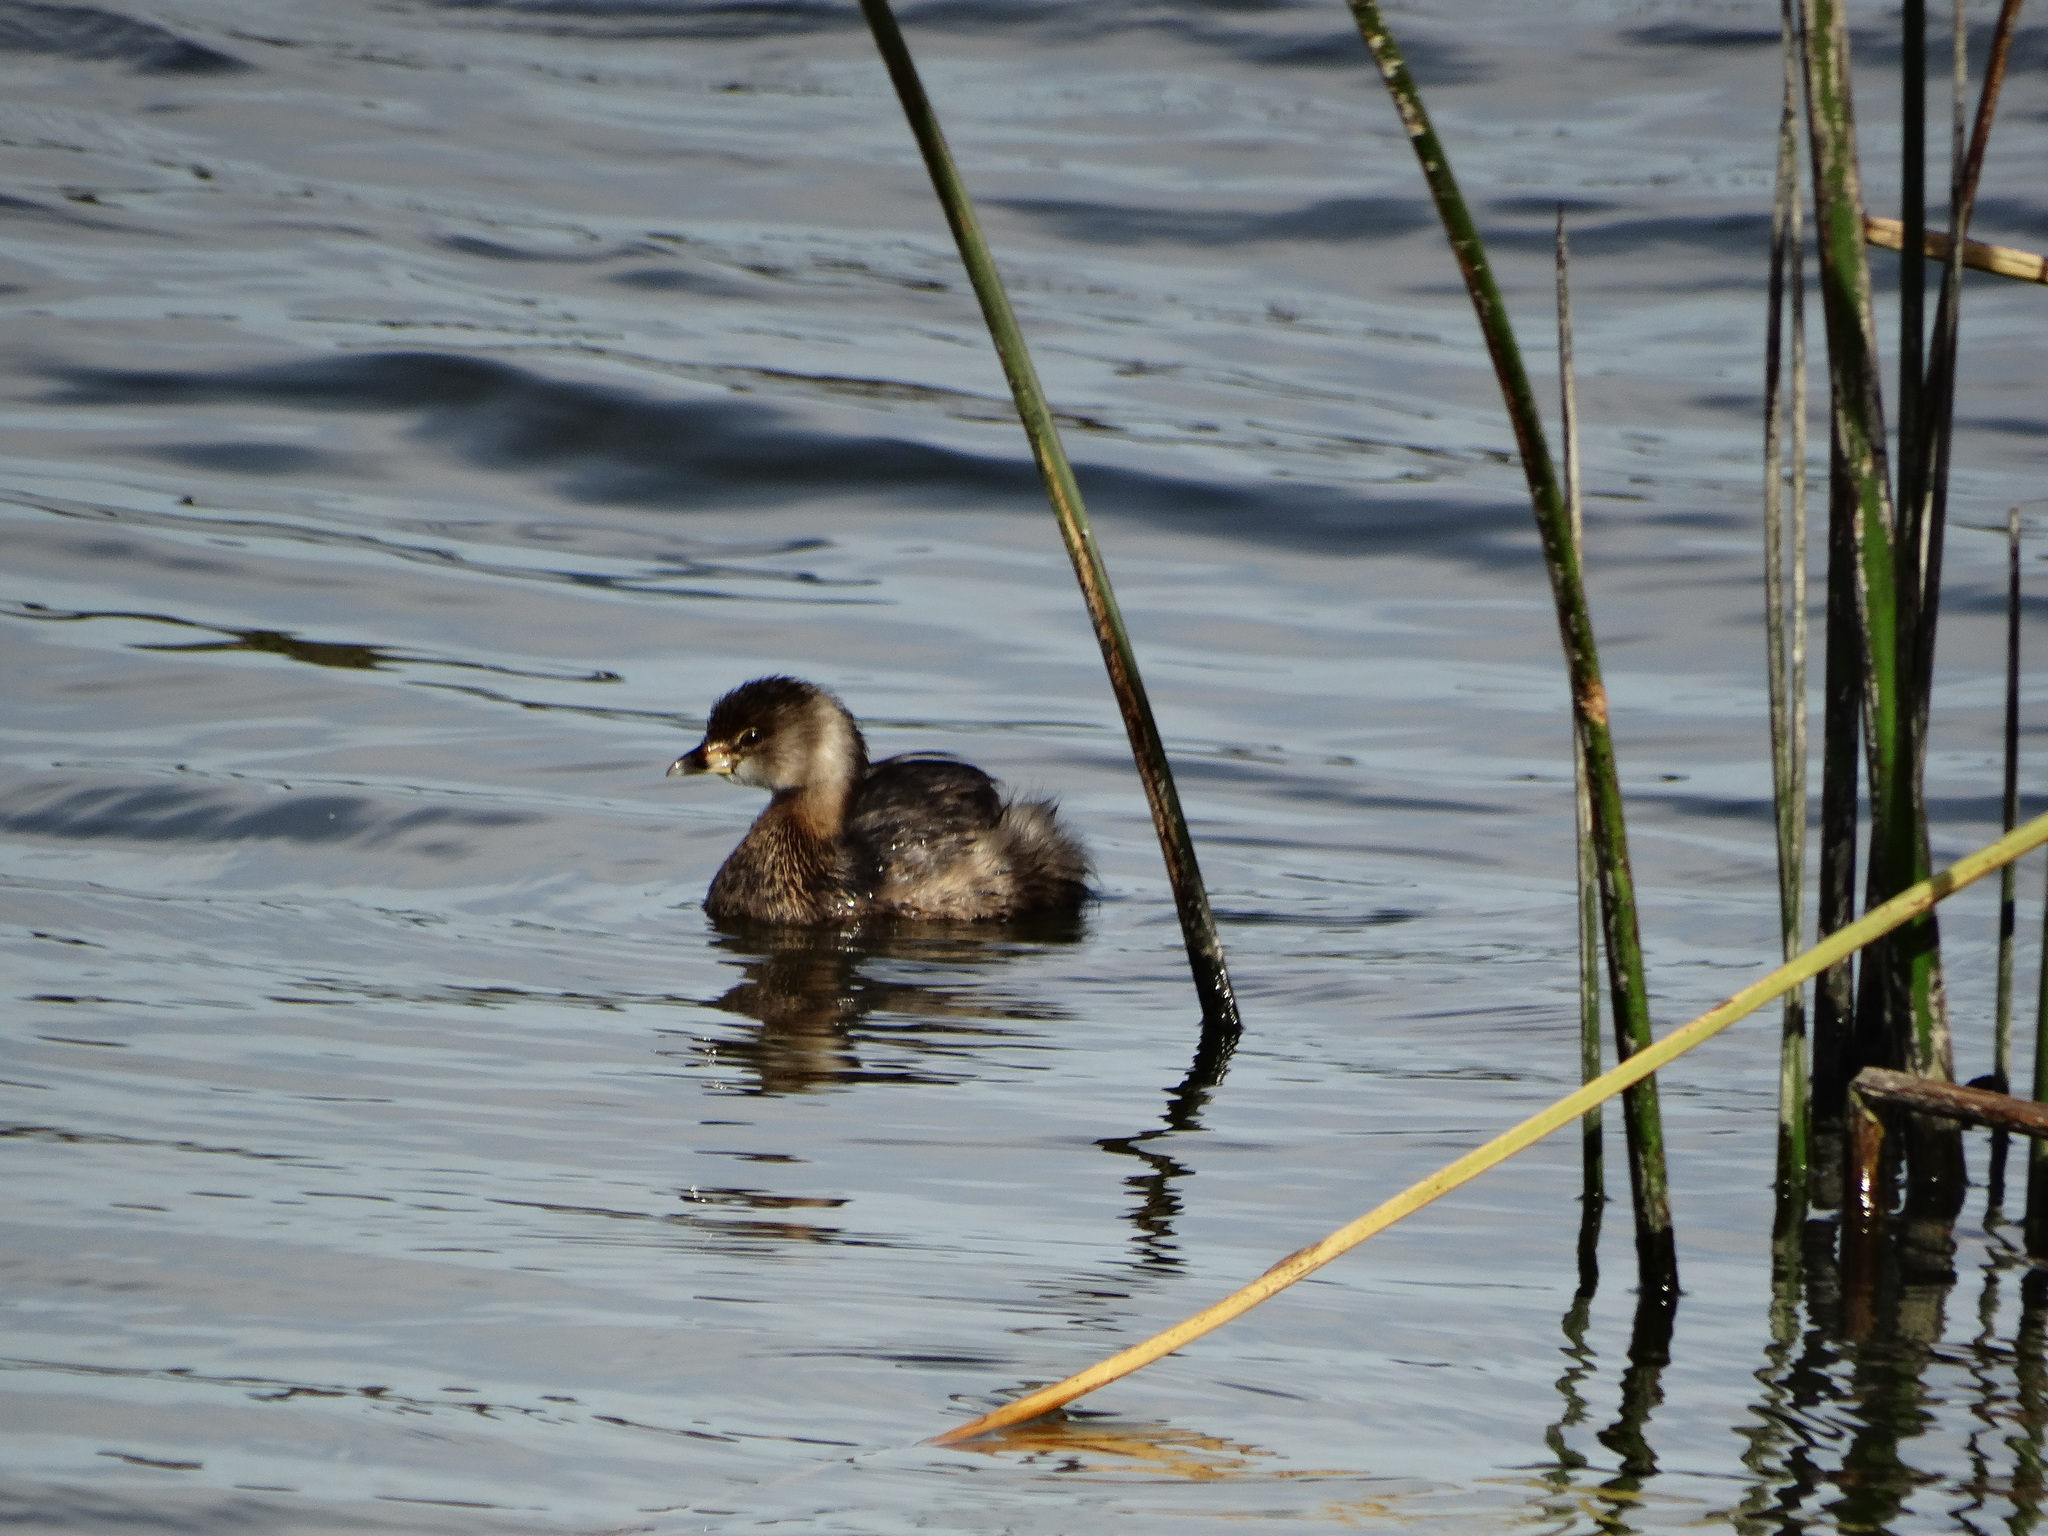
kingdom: Animalia
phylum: Chordata
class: Aves
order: Podicipediformes
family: Podicipedidae
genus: Podilymbus
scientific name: Podilymbus podiceps
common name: Pied-billed grebe
